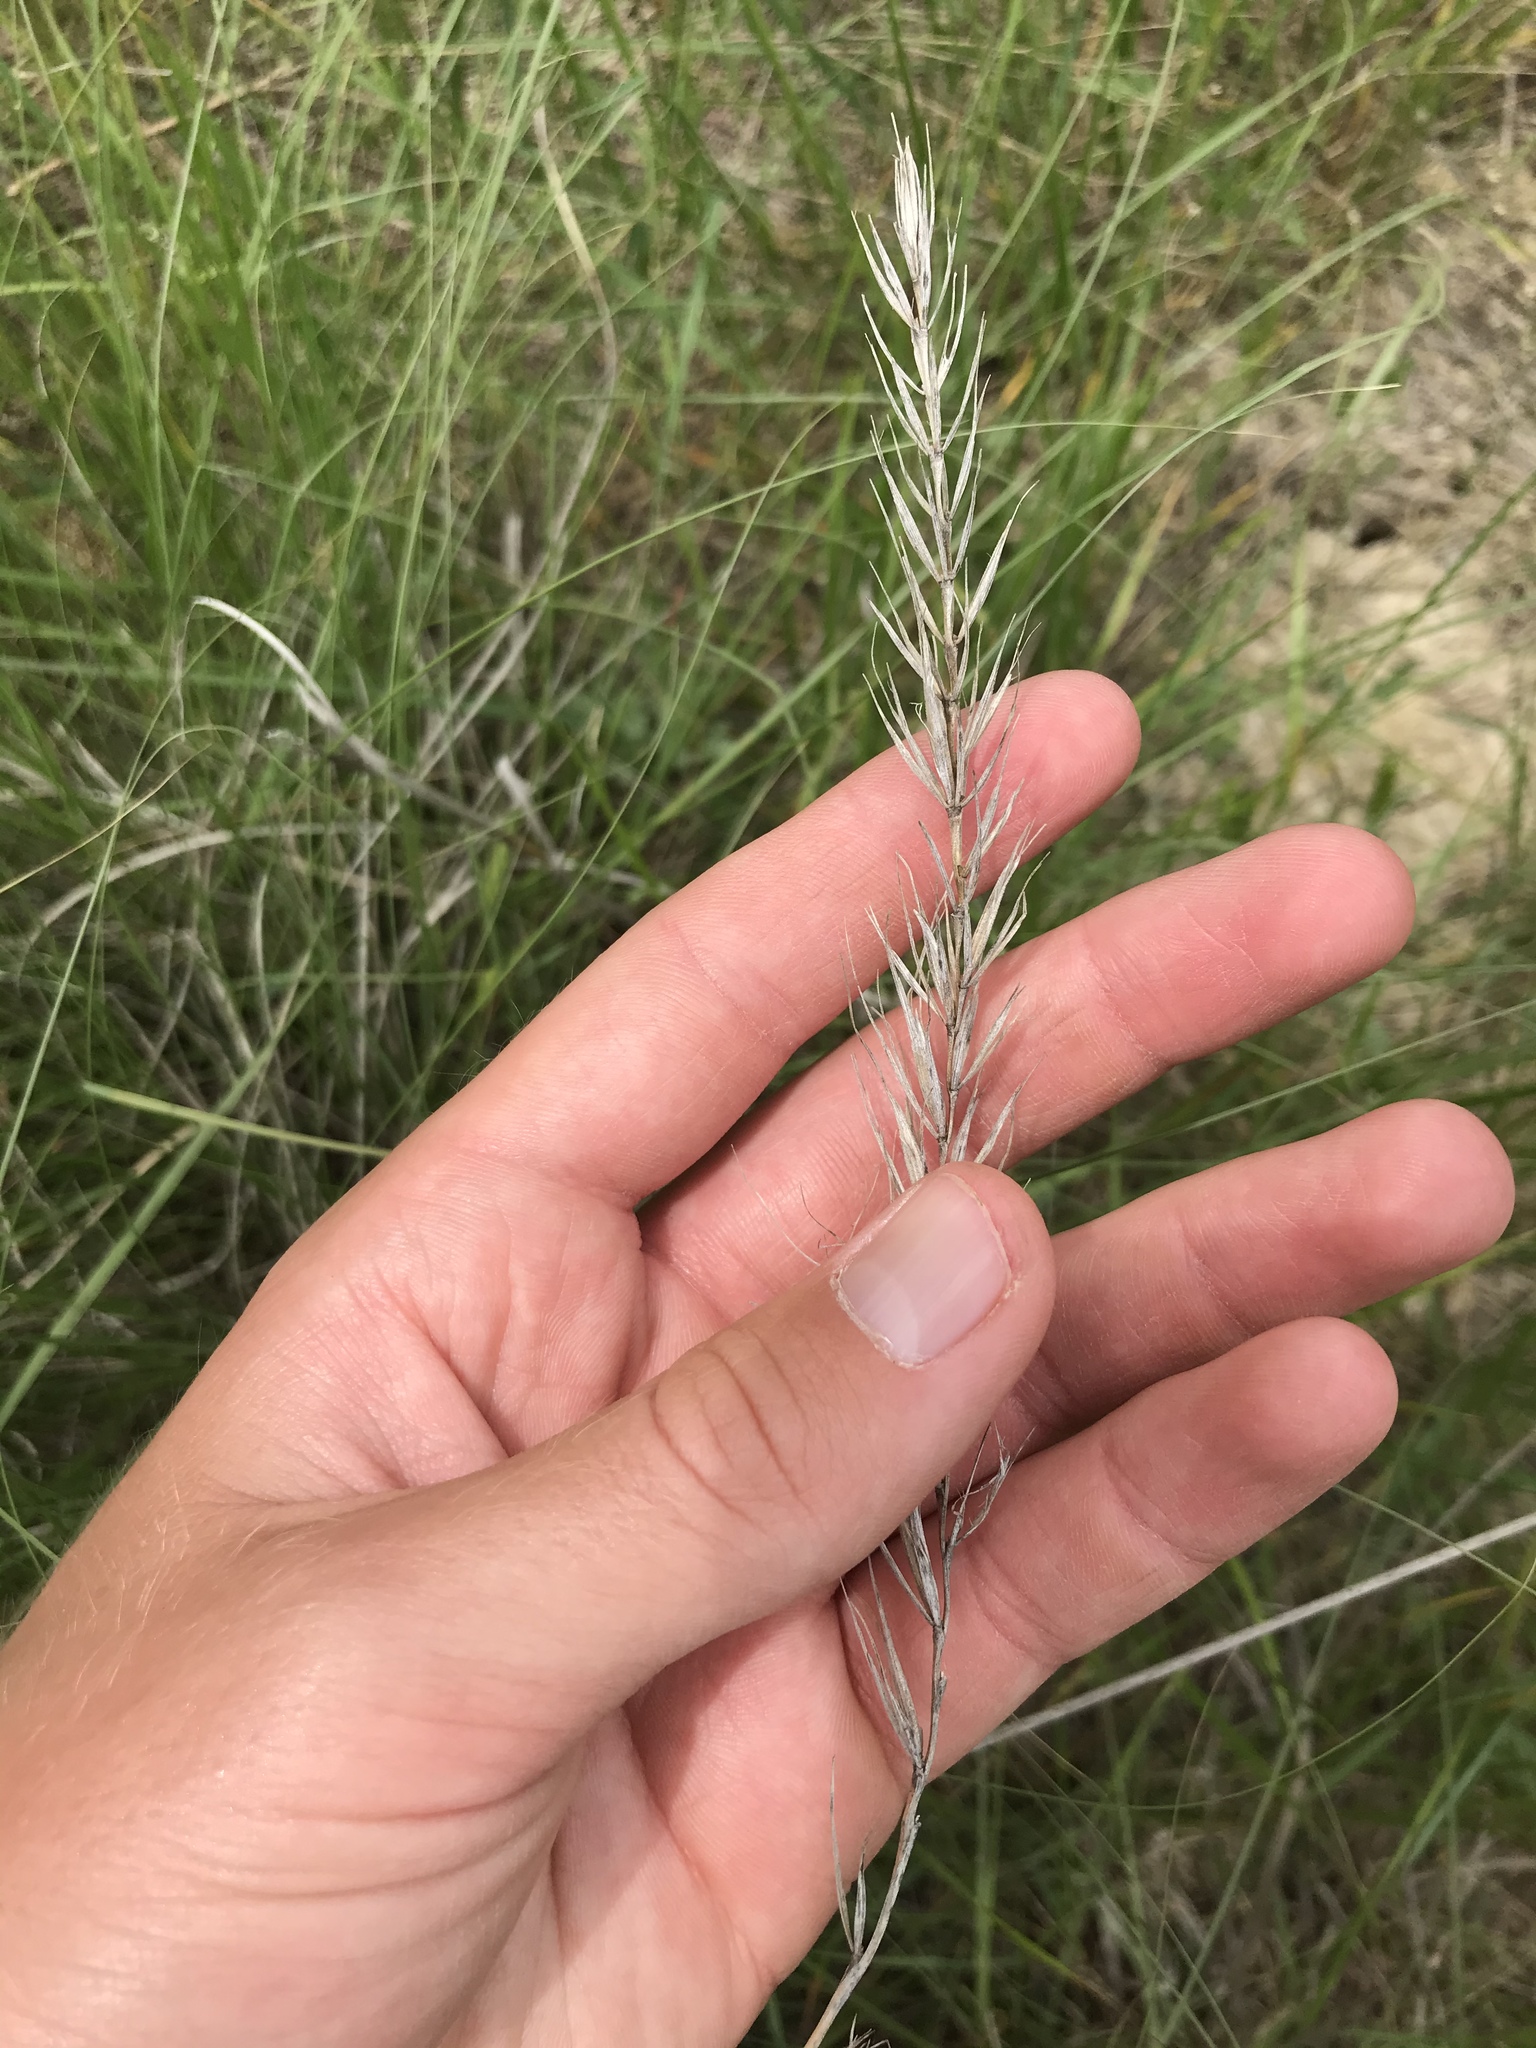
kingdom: Plantae
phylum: Tracheophyta
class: Liliopsida
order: Poales
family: Poaceae
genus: Elymus
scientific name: Elymus canadensis
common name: Canada wild rye
